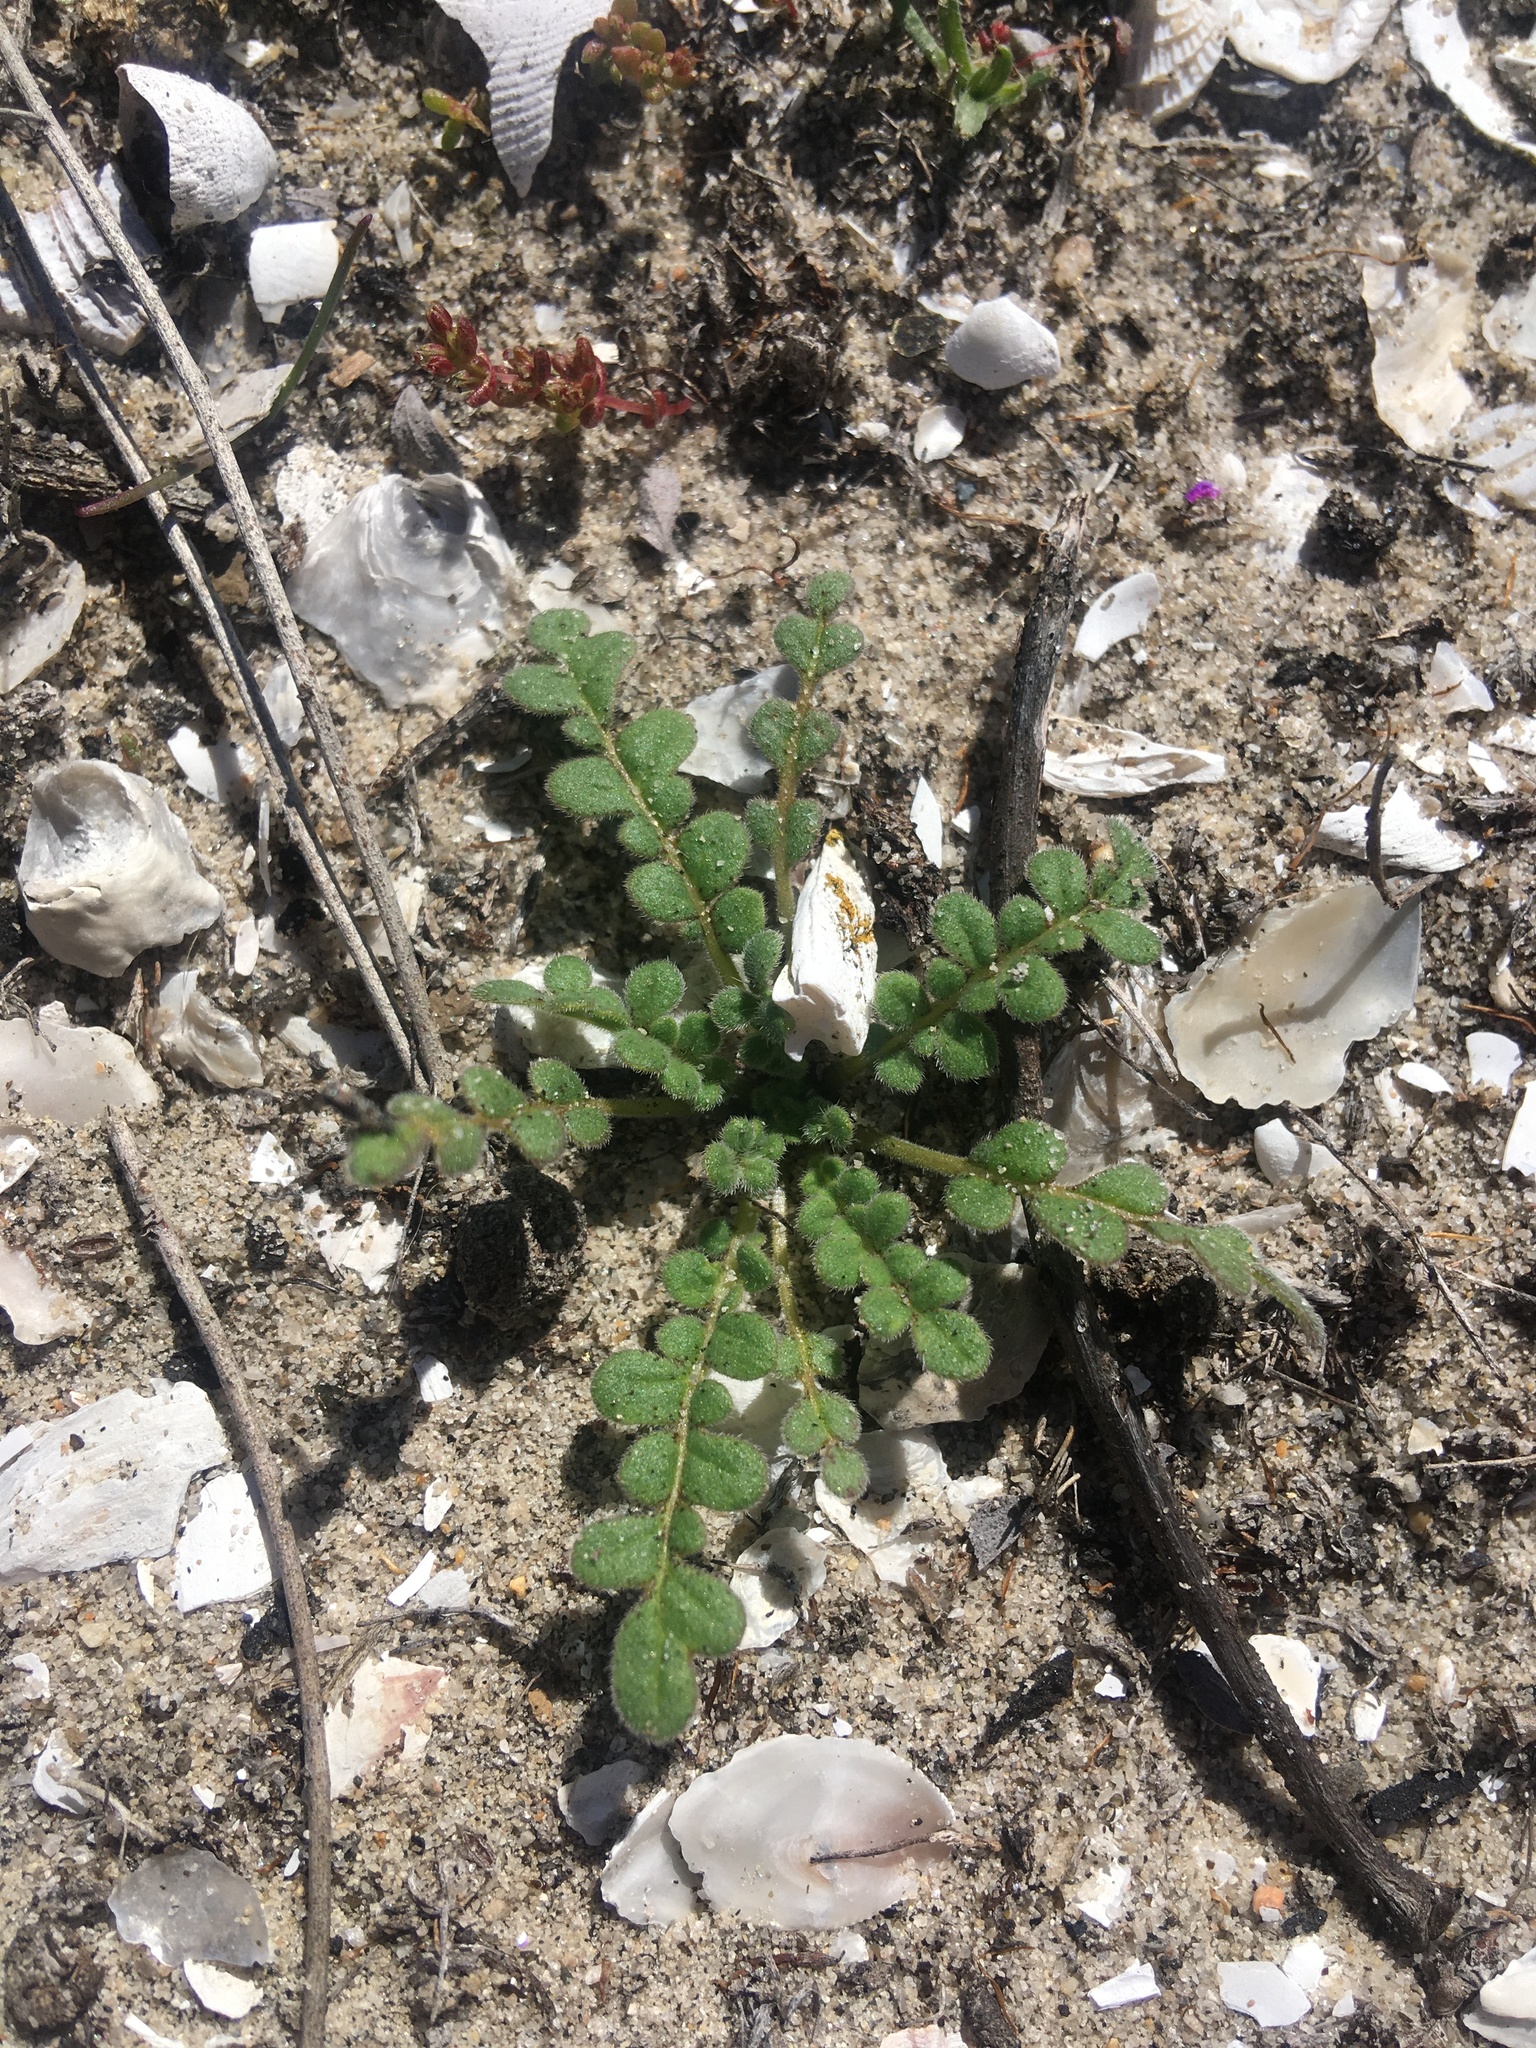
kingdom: Plantae
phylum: Tracheophyta
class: Magnoliopsida
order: Boraginales
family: Hydrophyllaceae
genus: Phacelia
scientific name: Phacelia stellaris
